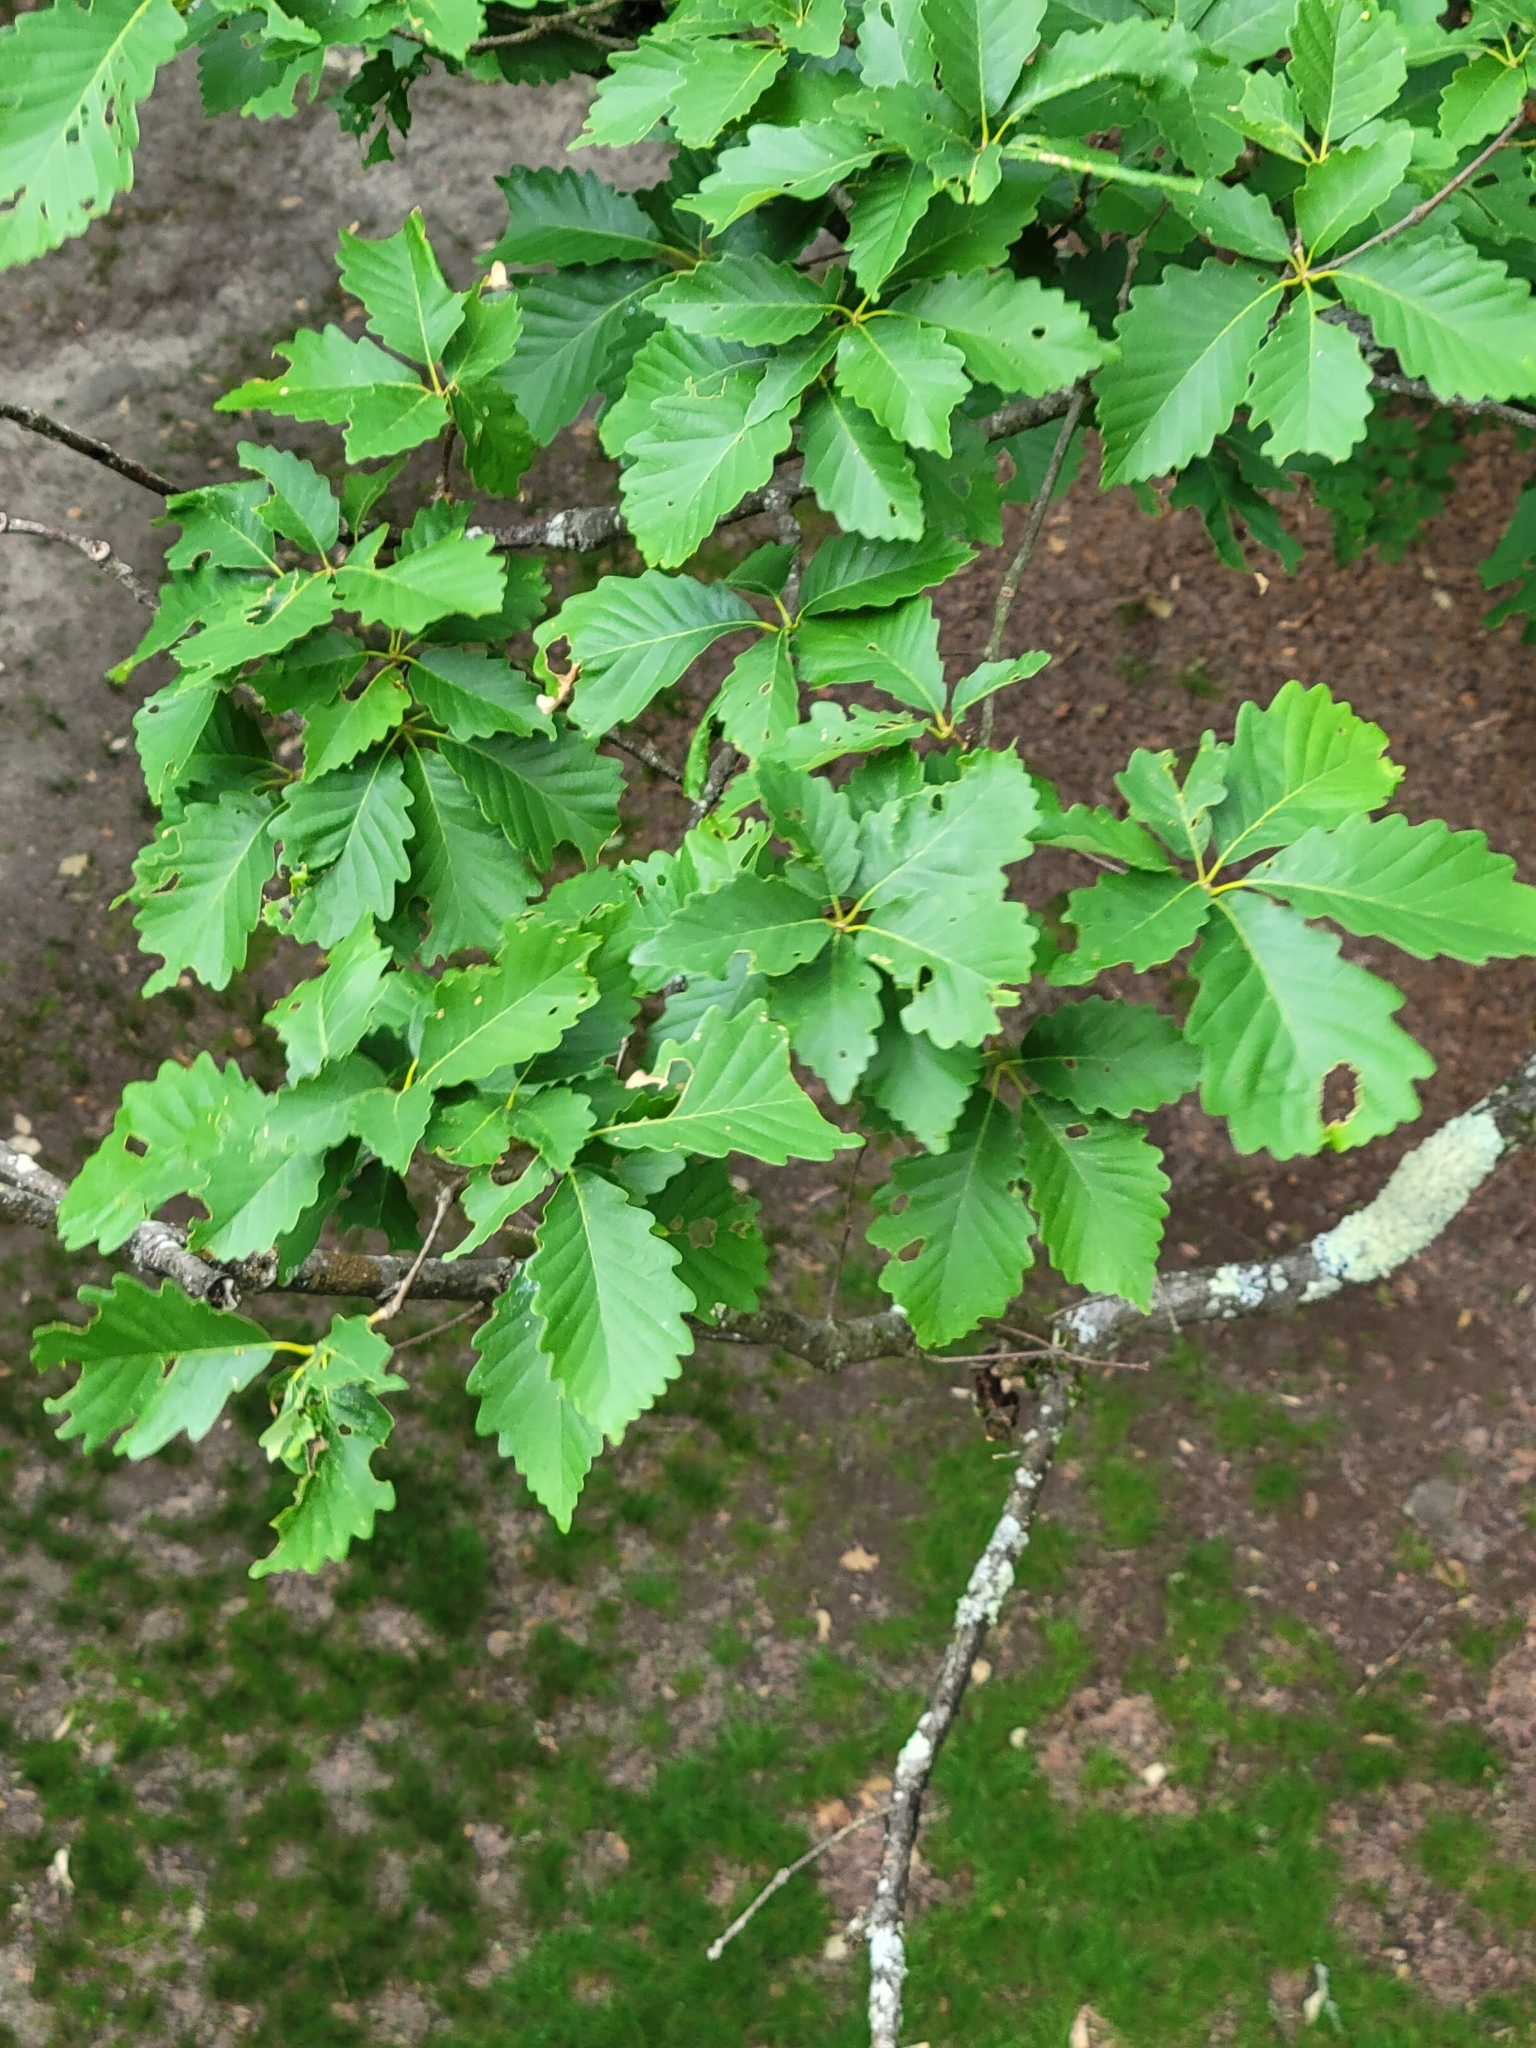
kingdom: Plantae
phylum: Tracheophyta
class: Magnoliopsida
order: Fagales
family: Fagaceae
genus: Quercus
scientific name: Quercus montana
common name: Chestnut oak
